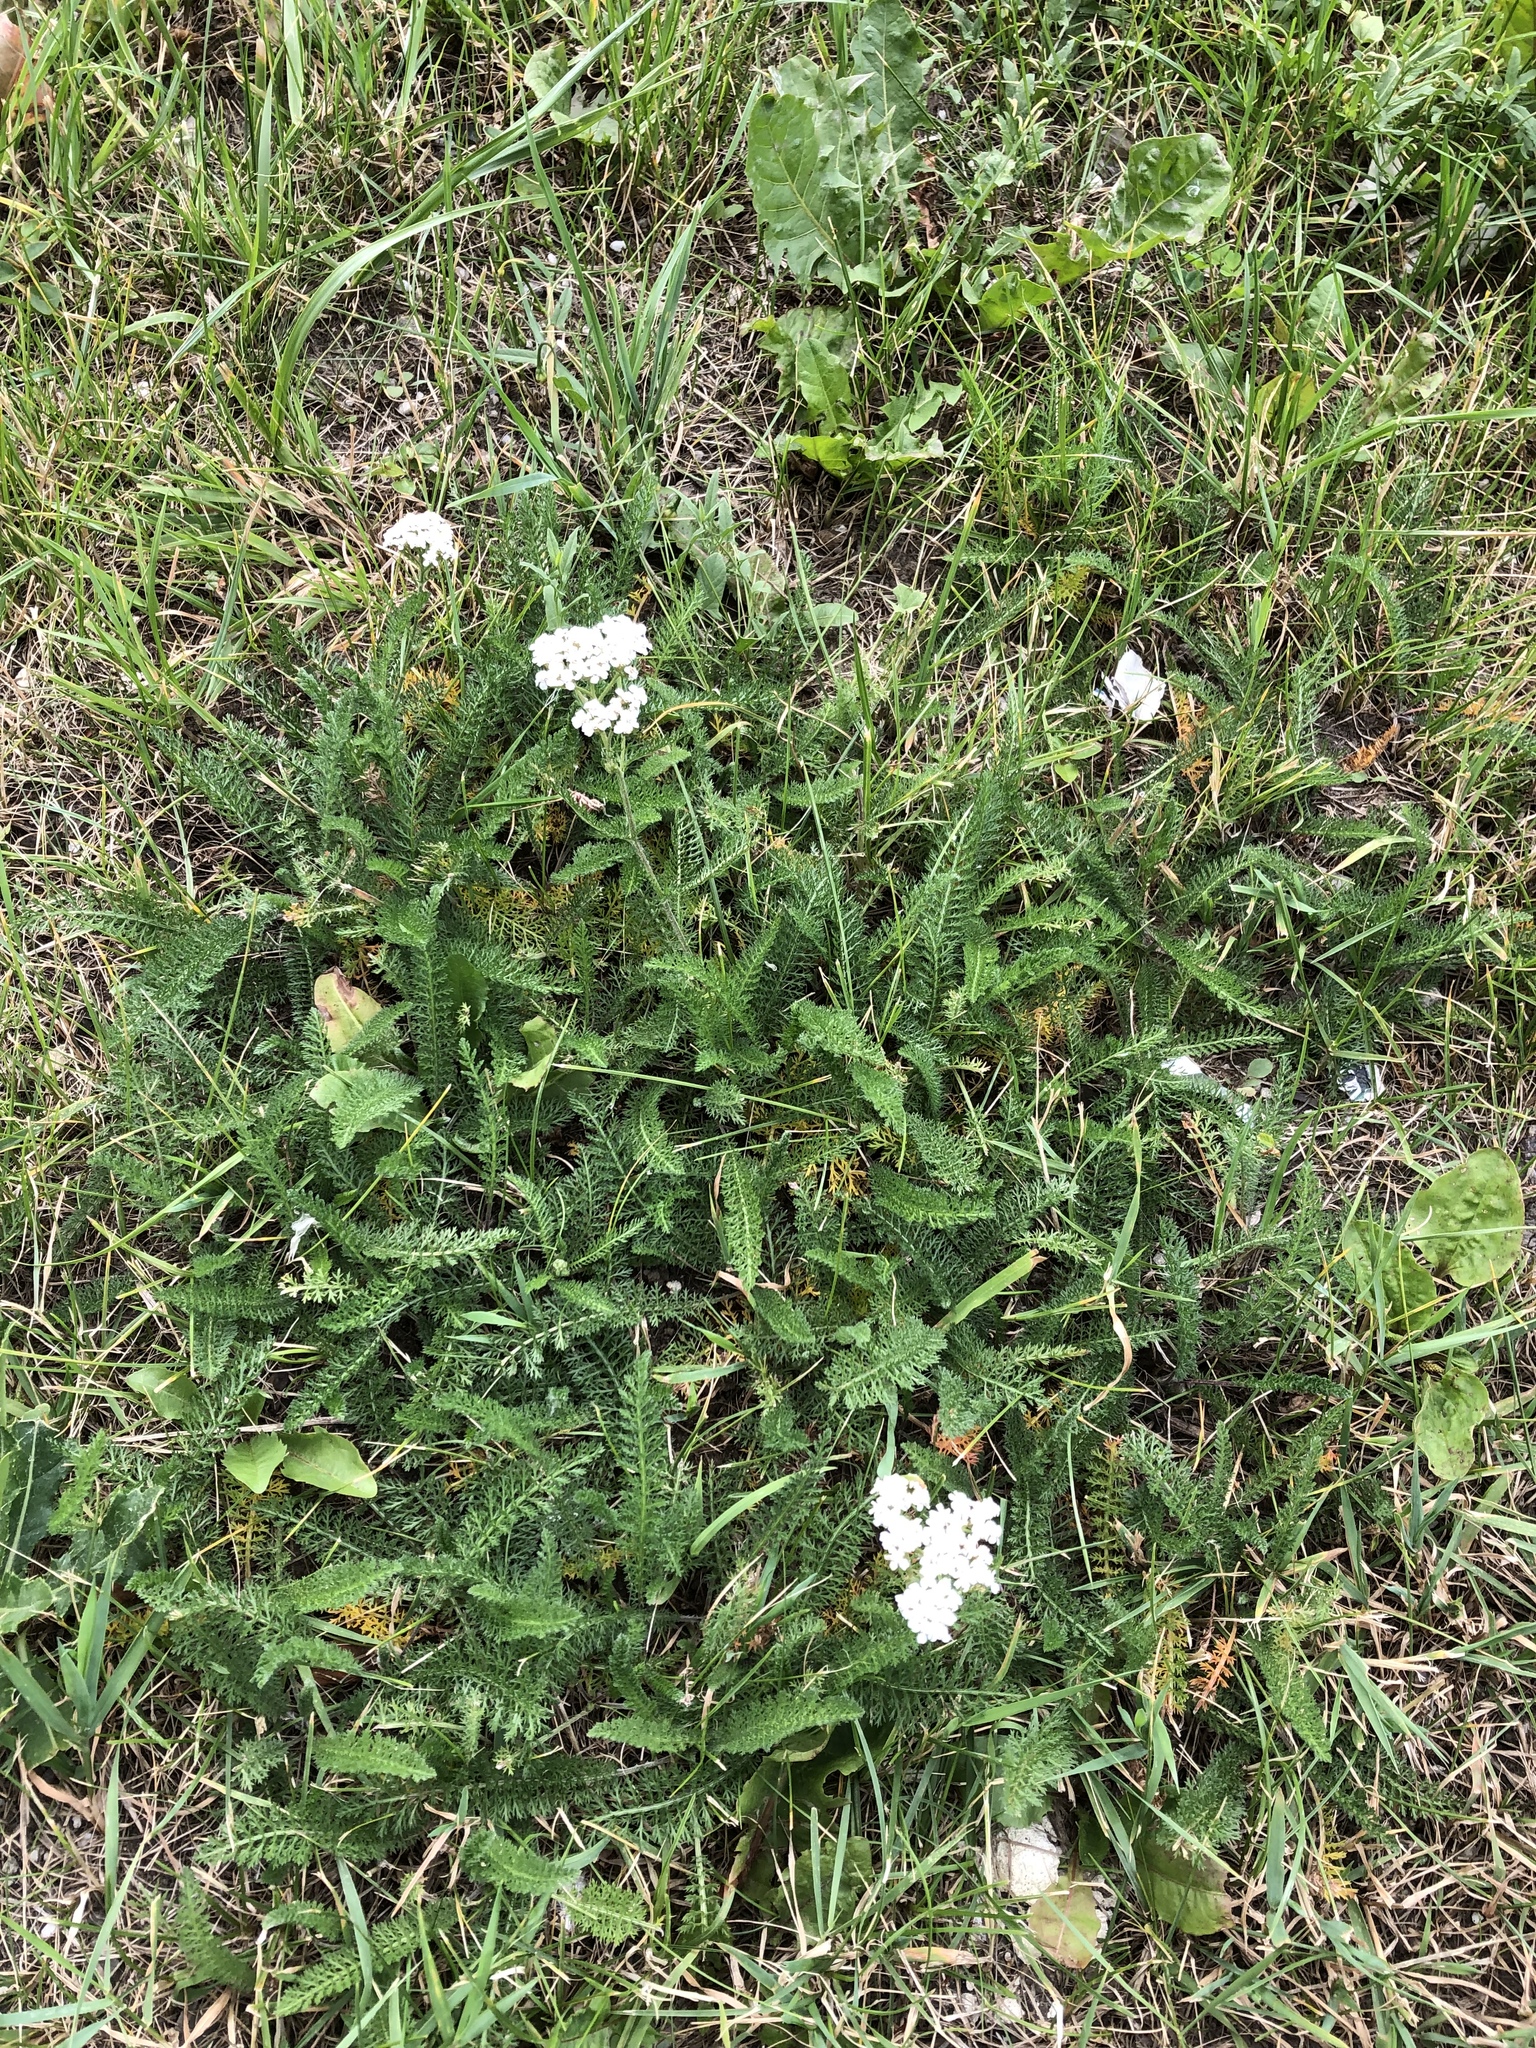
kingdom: Plantae
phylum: Tracheophyta
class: Magnoliopsida
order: Asterales
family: Asteraceae
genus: Achillea
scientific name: Achillea millefolium
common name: Yarrow
